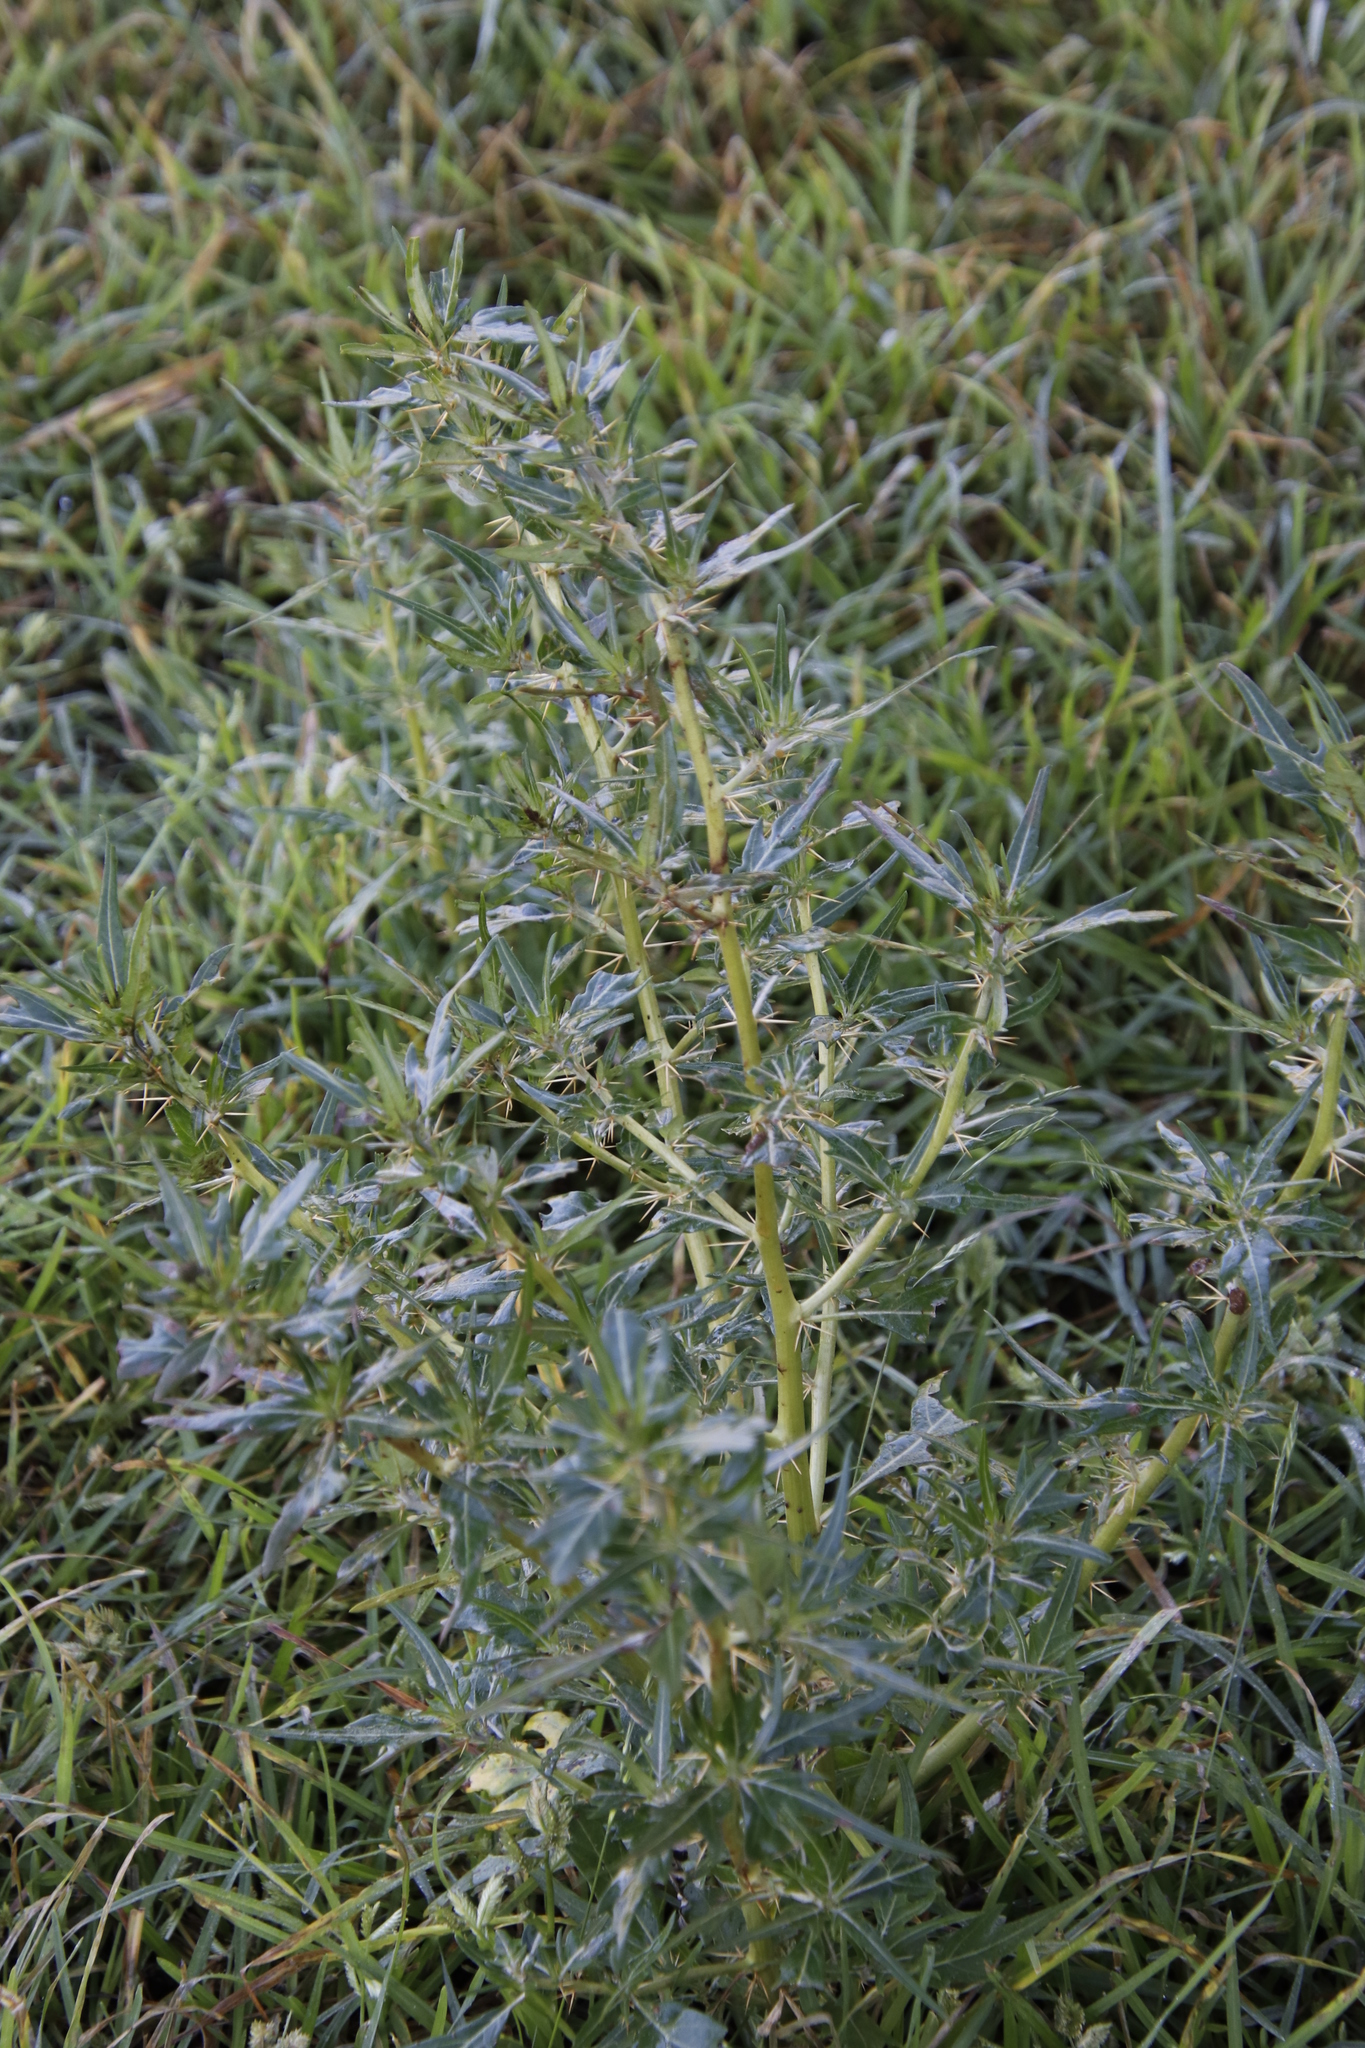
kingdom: Plantae
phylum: Tracheophyta
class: Magnoliopsida
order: Asterales
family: Asteraceae
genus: Xanthium
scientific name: Xanthium spinosum
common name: Spiny cocklebur
